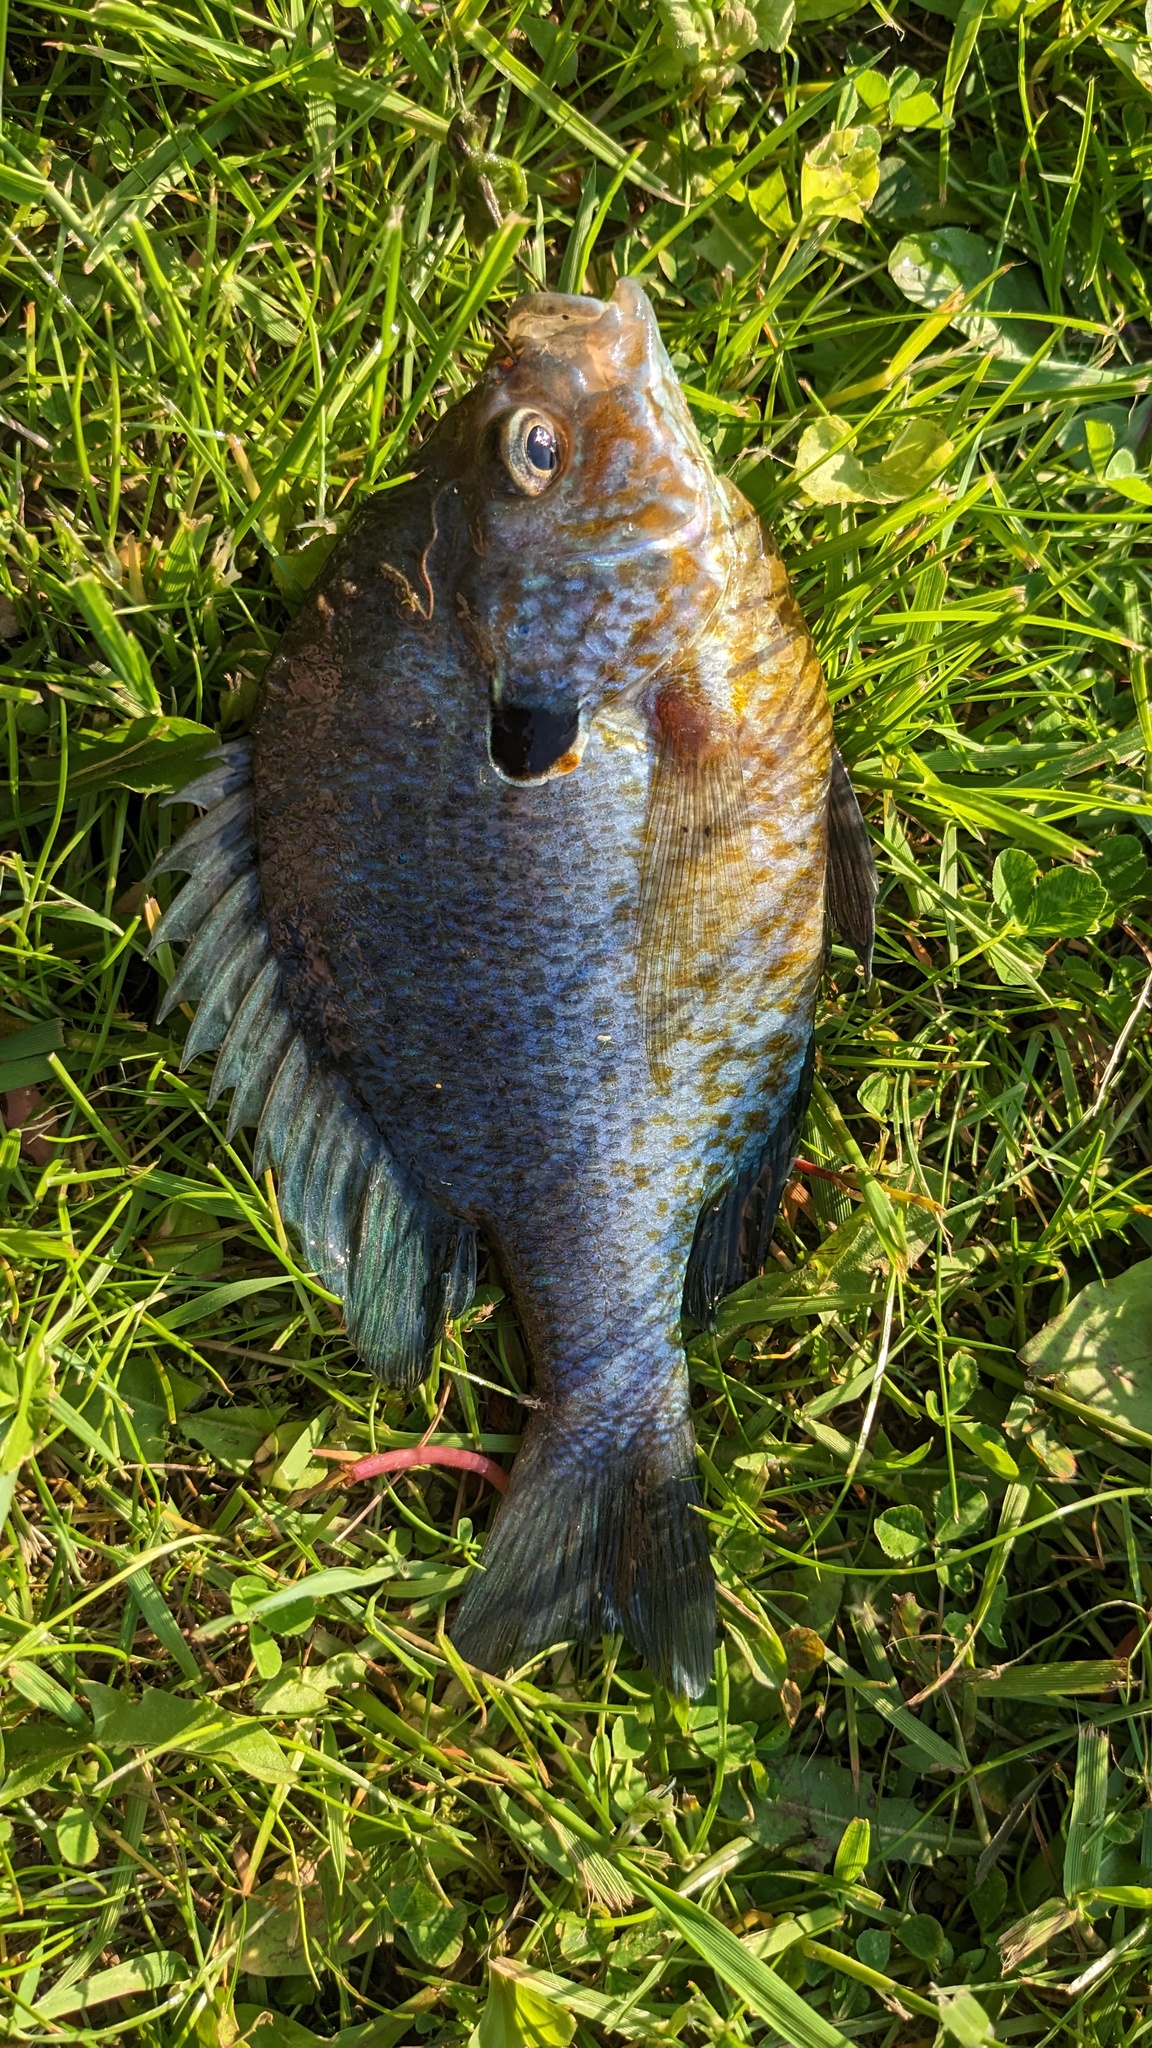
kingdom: Animalia
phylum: Chordata
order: Perciformes
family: Centrarchidae
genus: Lepomis
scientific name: Lepomis
